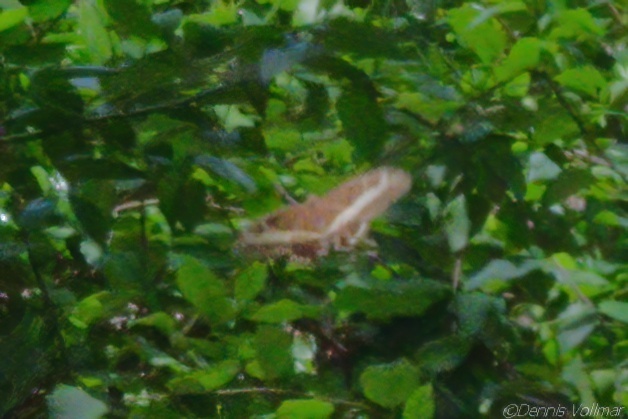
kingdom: Animalia
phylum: Arthropoda
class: Insecta
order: Lepidoptera
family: Papilionidae
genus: Papilio
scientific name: Papilio andraemon
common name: Bahaman swallowtail
